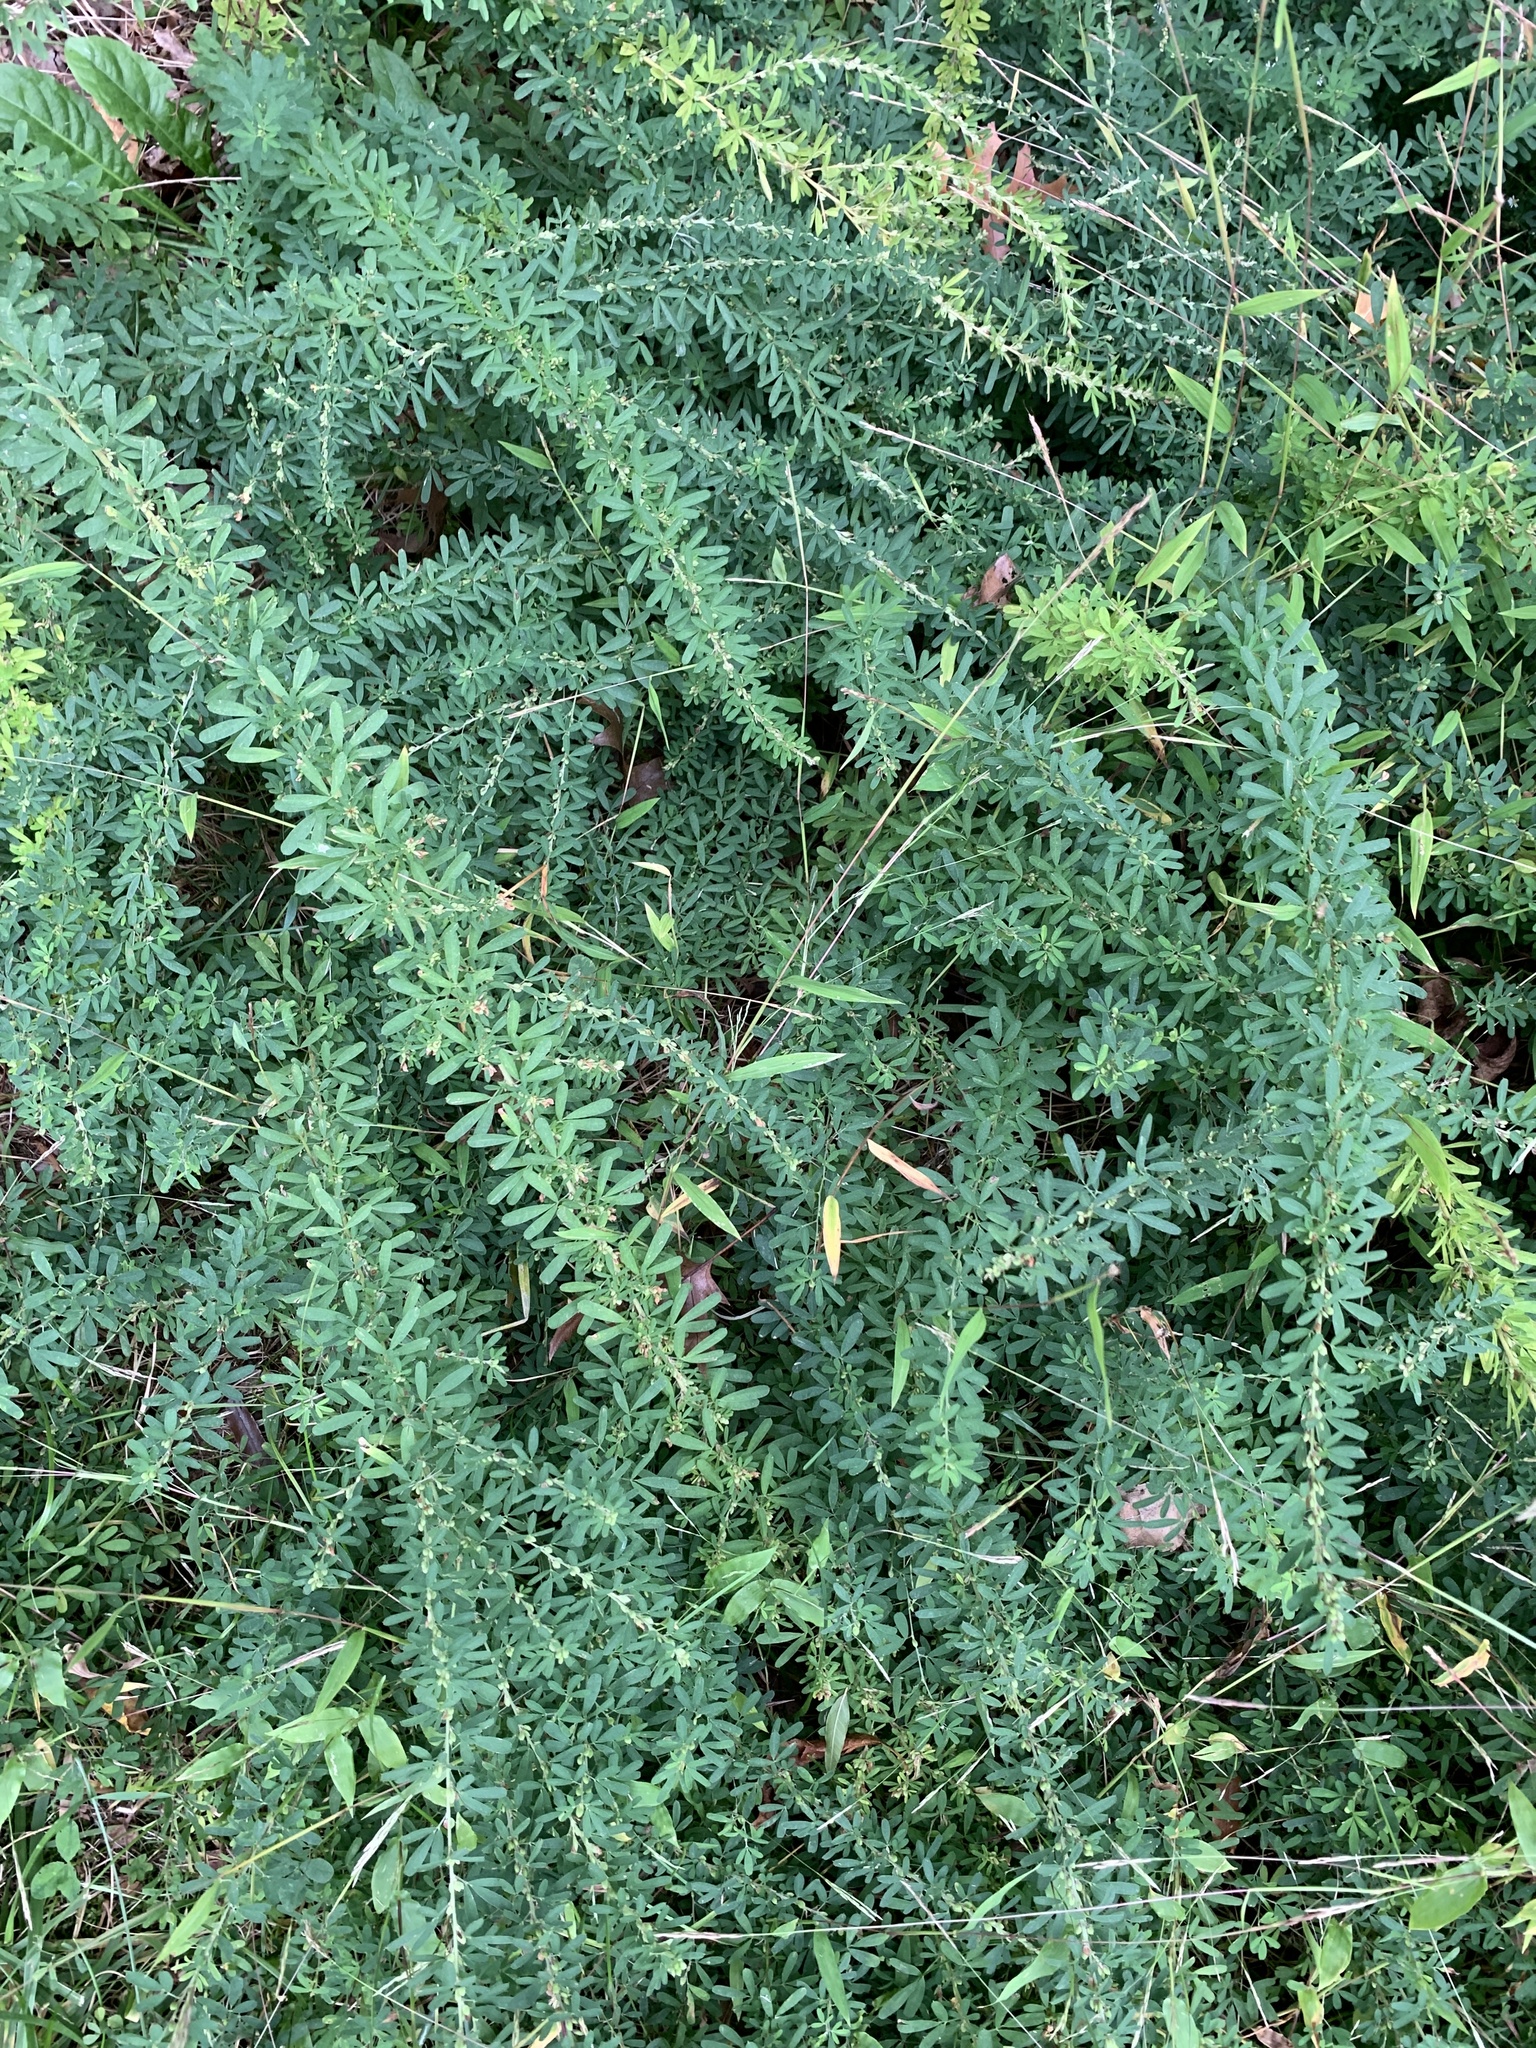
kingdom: Plantae
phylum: Tracheophyta
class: Magnoliopsida
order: Fabales
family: Fabaceae
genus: Lespedeza
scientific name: Lespedeza cuneata
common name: Chinese bush-clover
